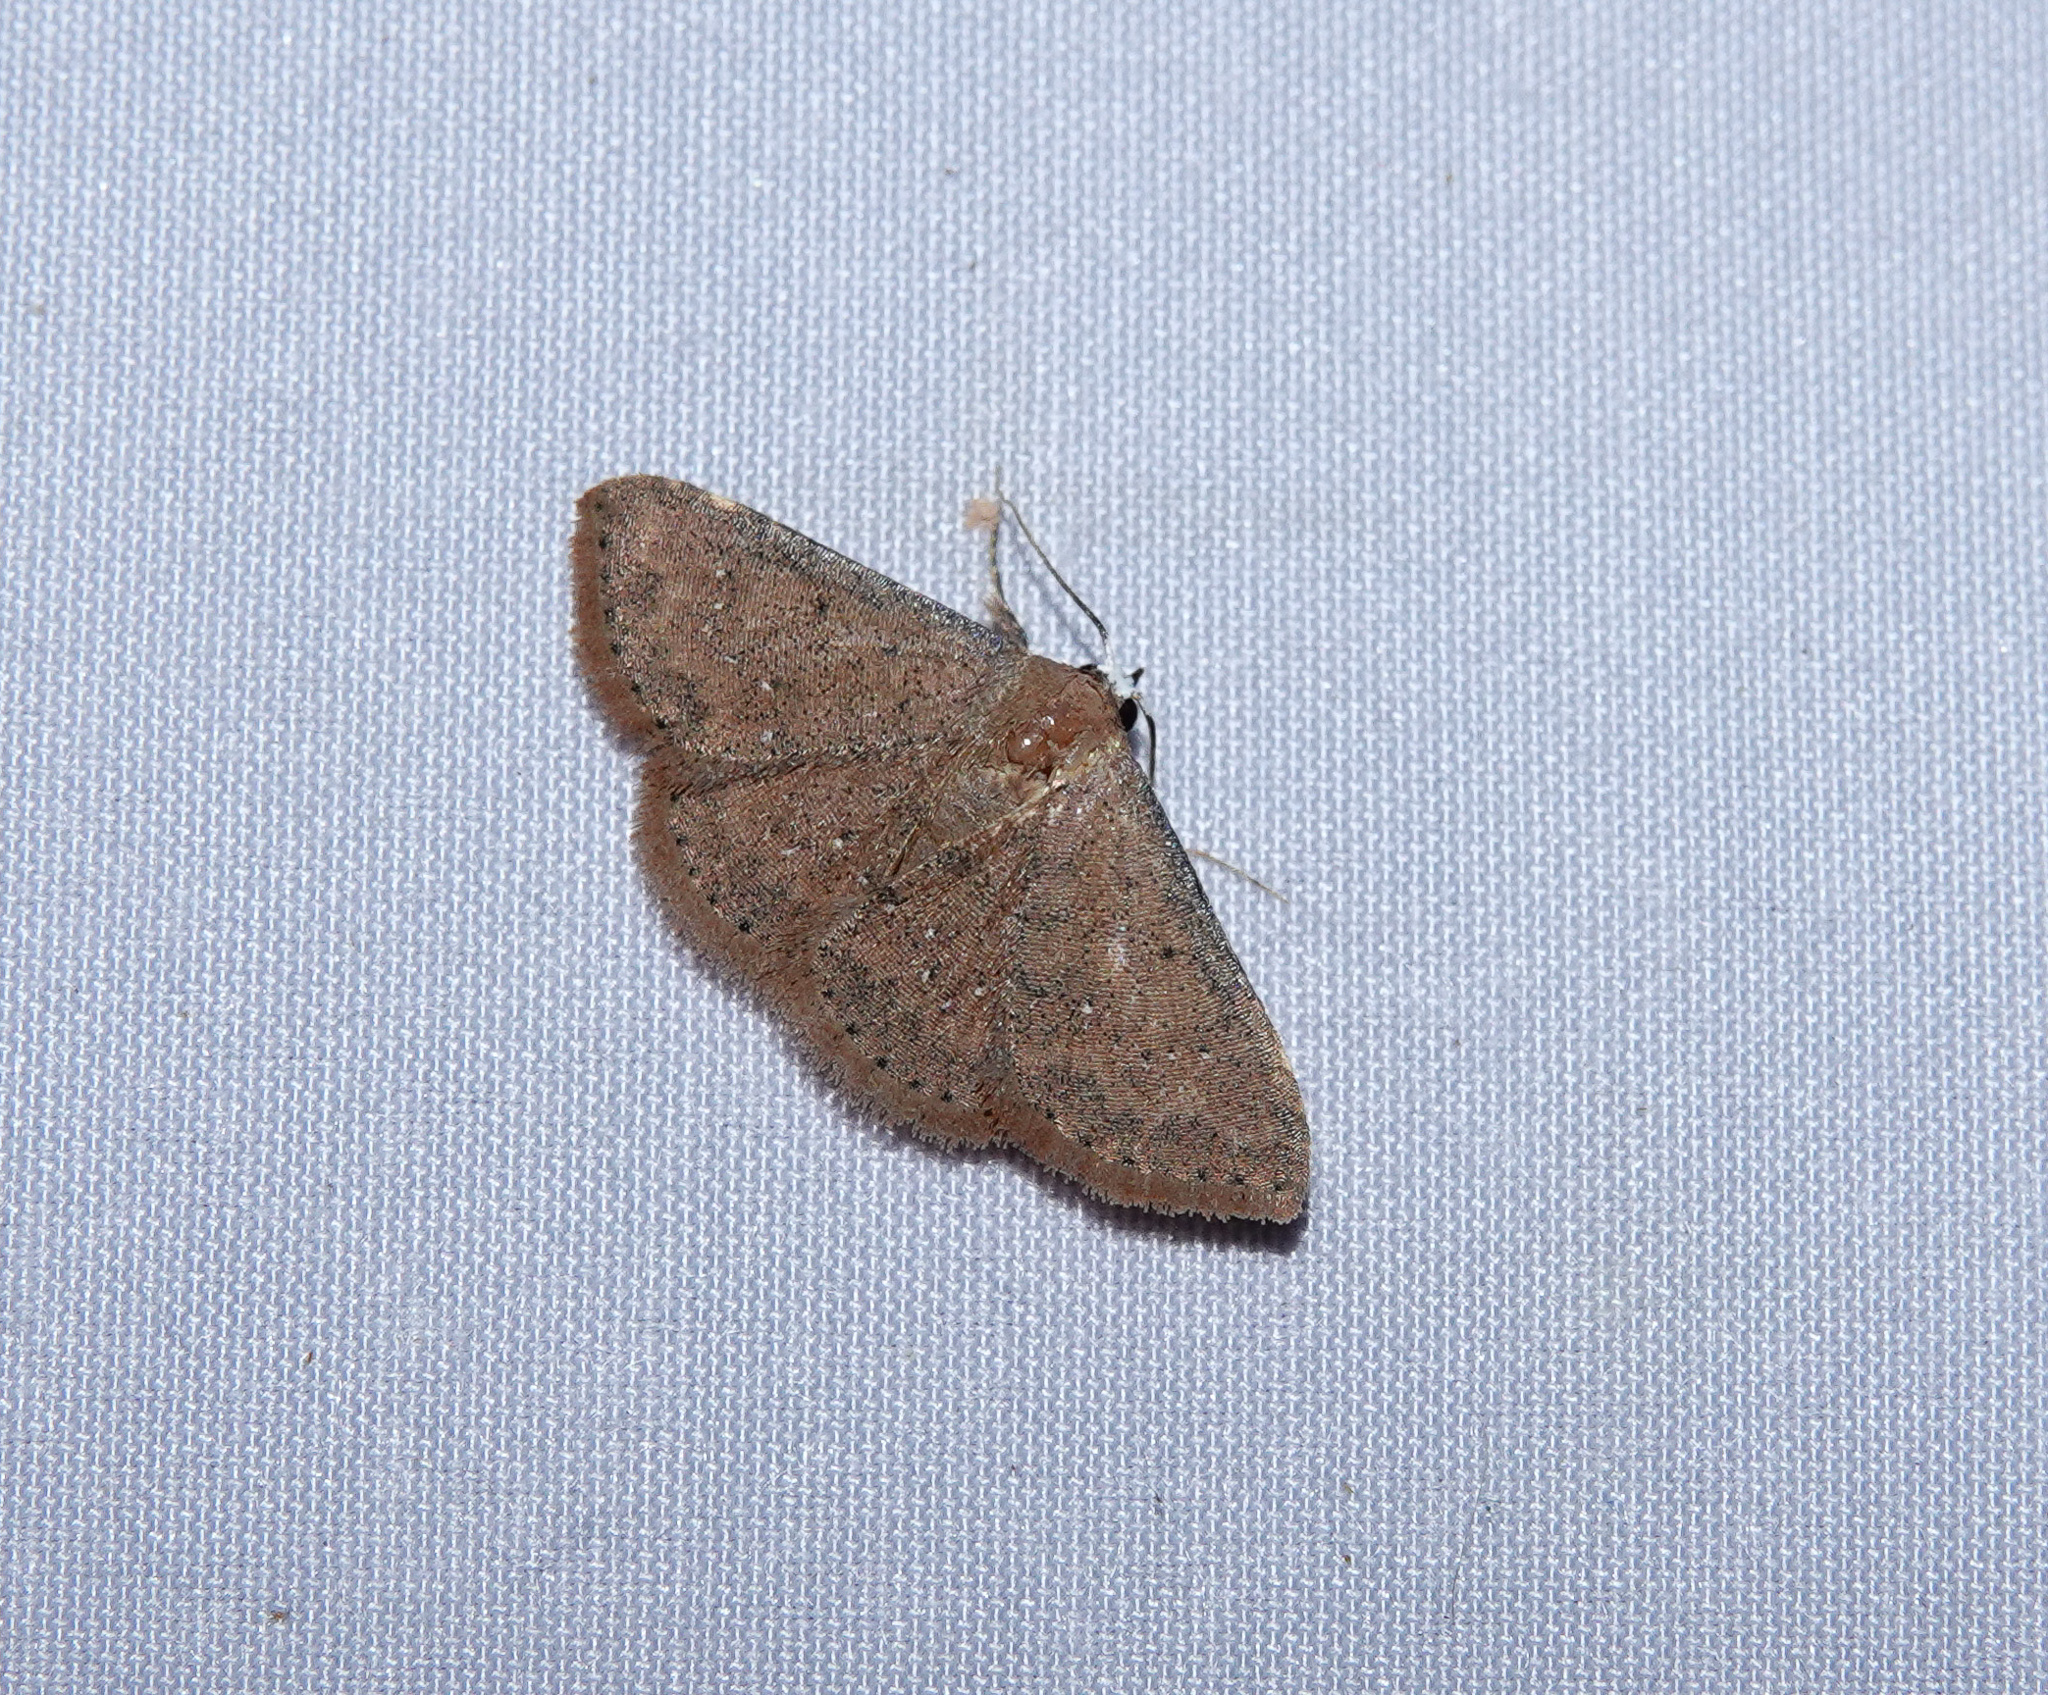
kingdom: Animalia
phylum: Arthropoda
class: Insecta
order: Lepidoptera
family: Noctuidae
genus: Cerynea
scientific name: Cerynea punctilinealis
